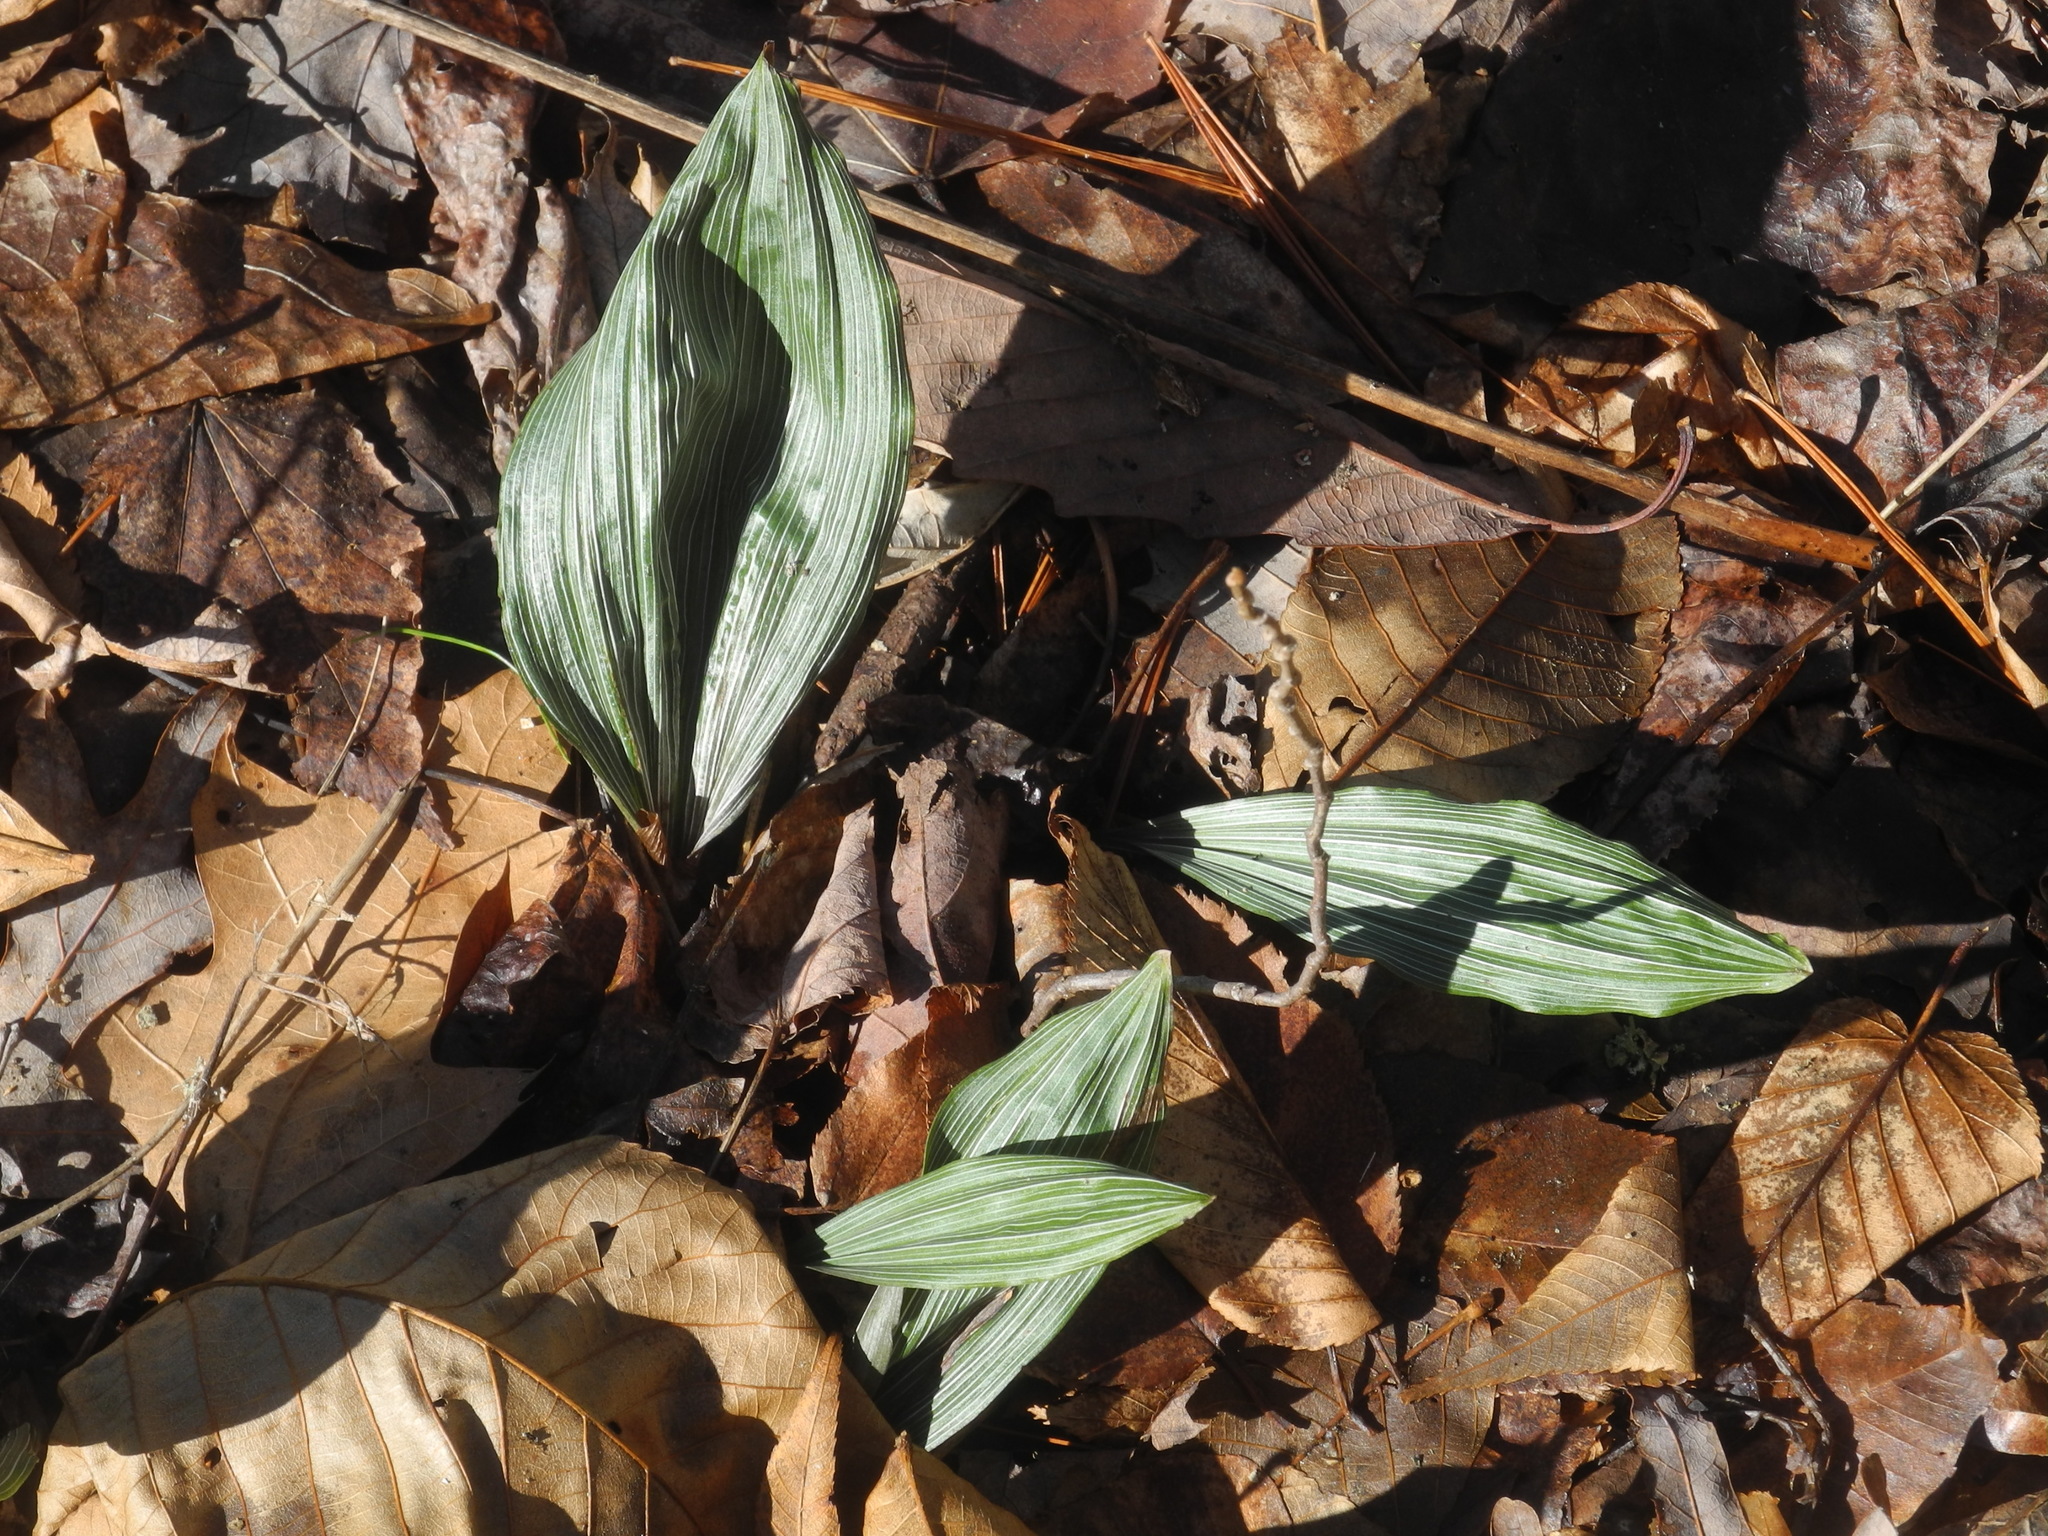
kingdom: Plantae
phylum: Tracheophyta
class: Liliopsida
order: Asparagales
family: Orchidaceae
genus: Aplectrum
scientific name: Aplectrum hyemale
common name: Adam-and-eve
